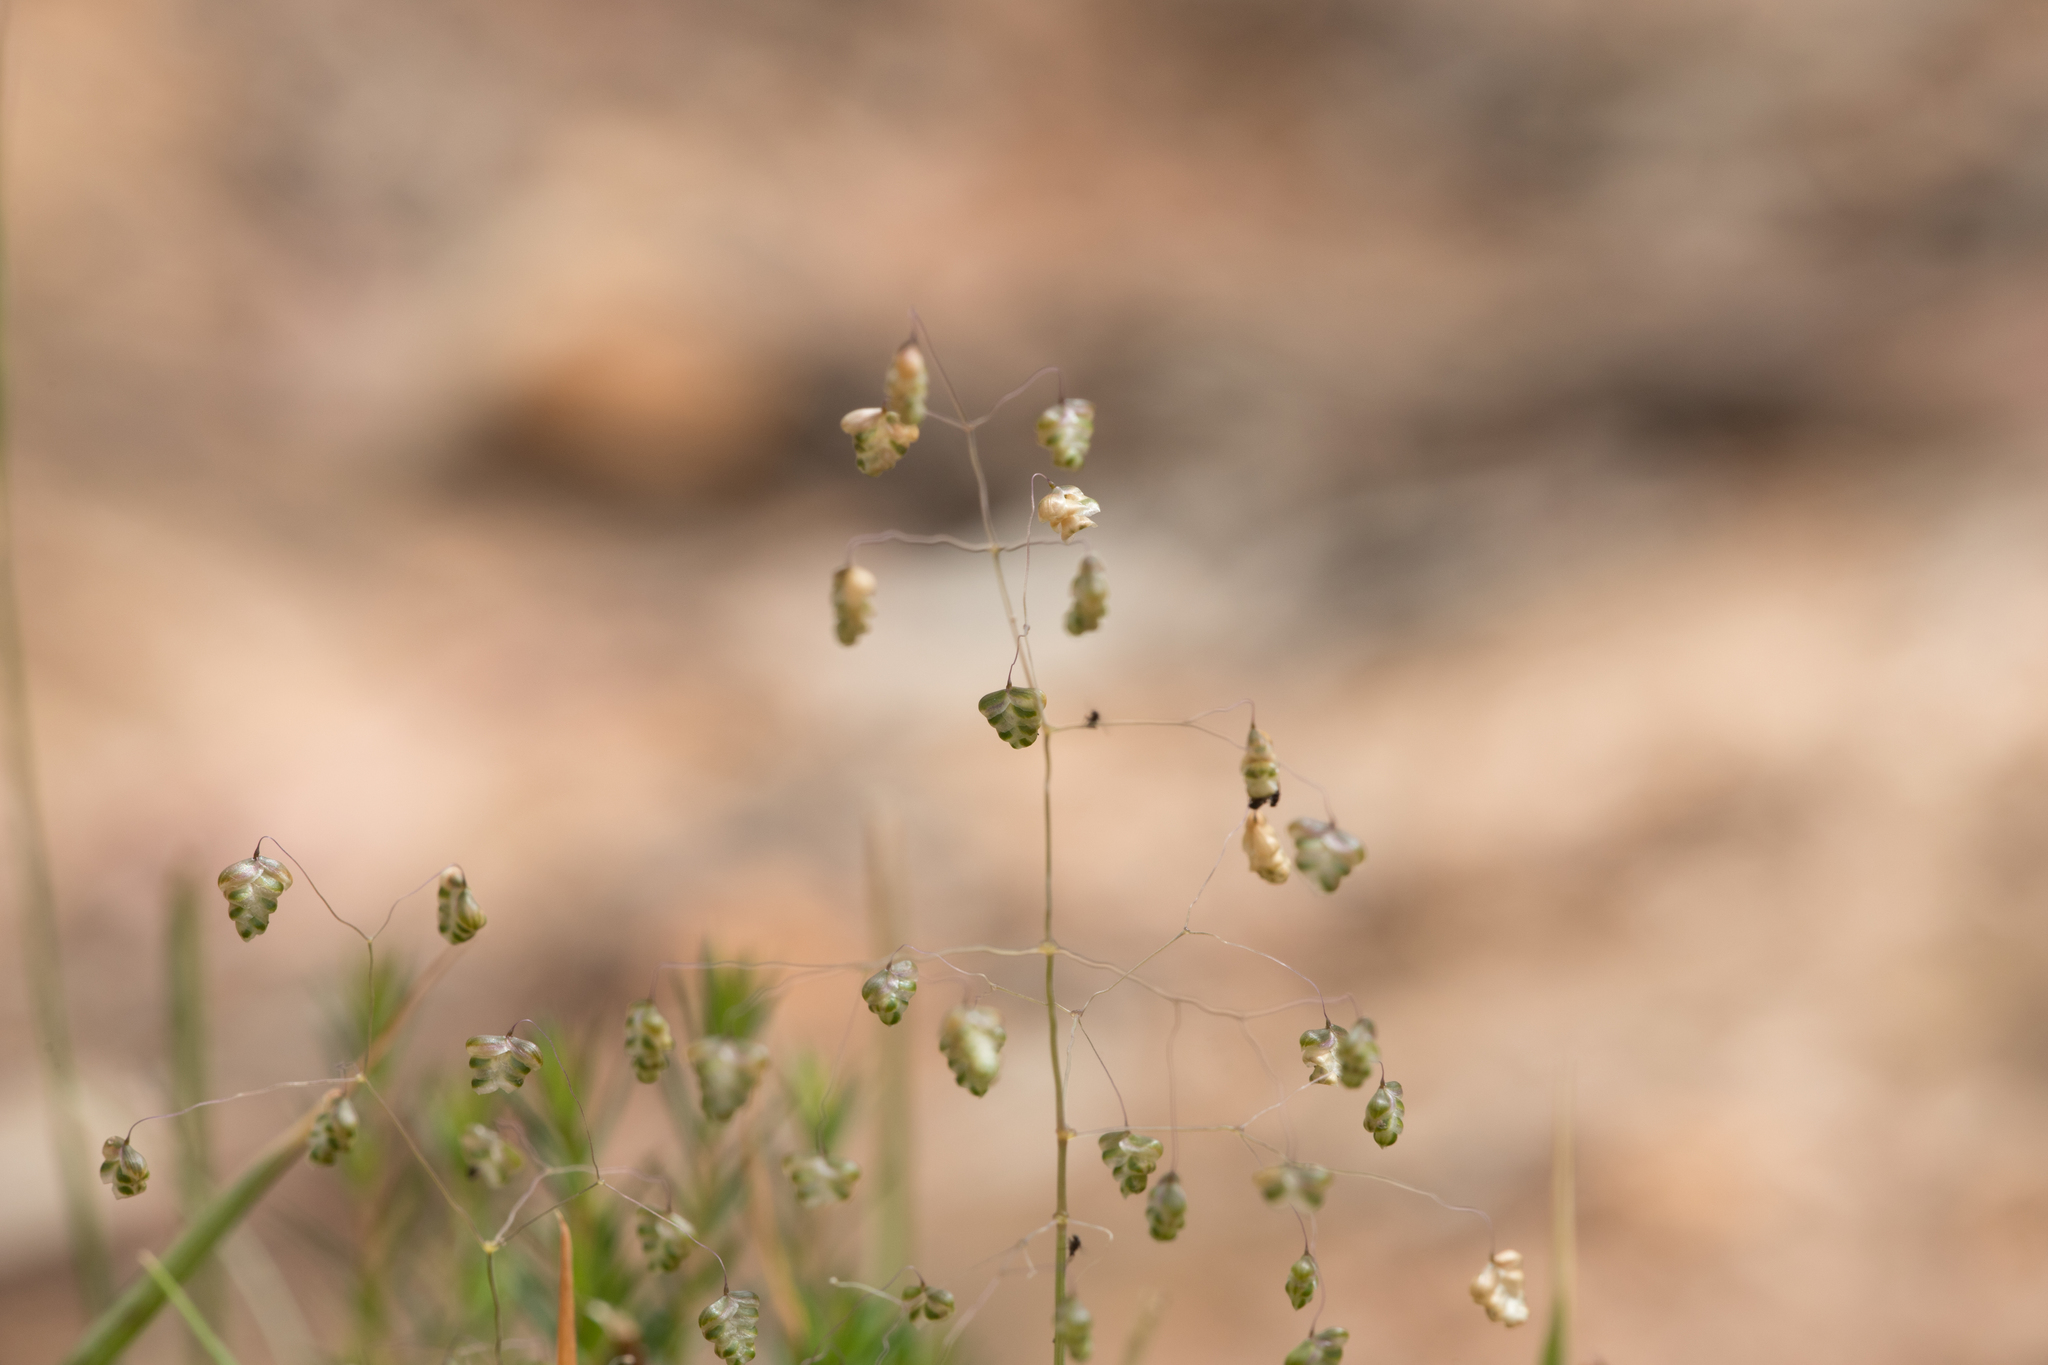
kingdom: Plantae
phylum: Tracheophyta
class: Liliopsida
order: Poales
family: Poaceae
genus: Briza
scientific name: Briza minor
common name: Lesser quaking-grass
